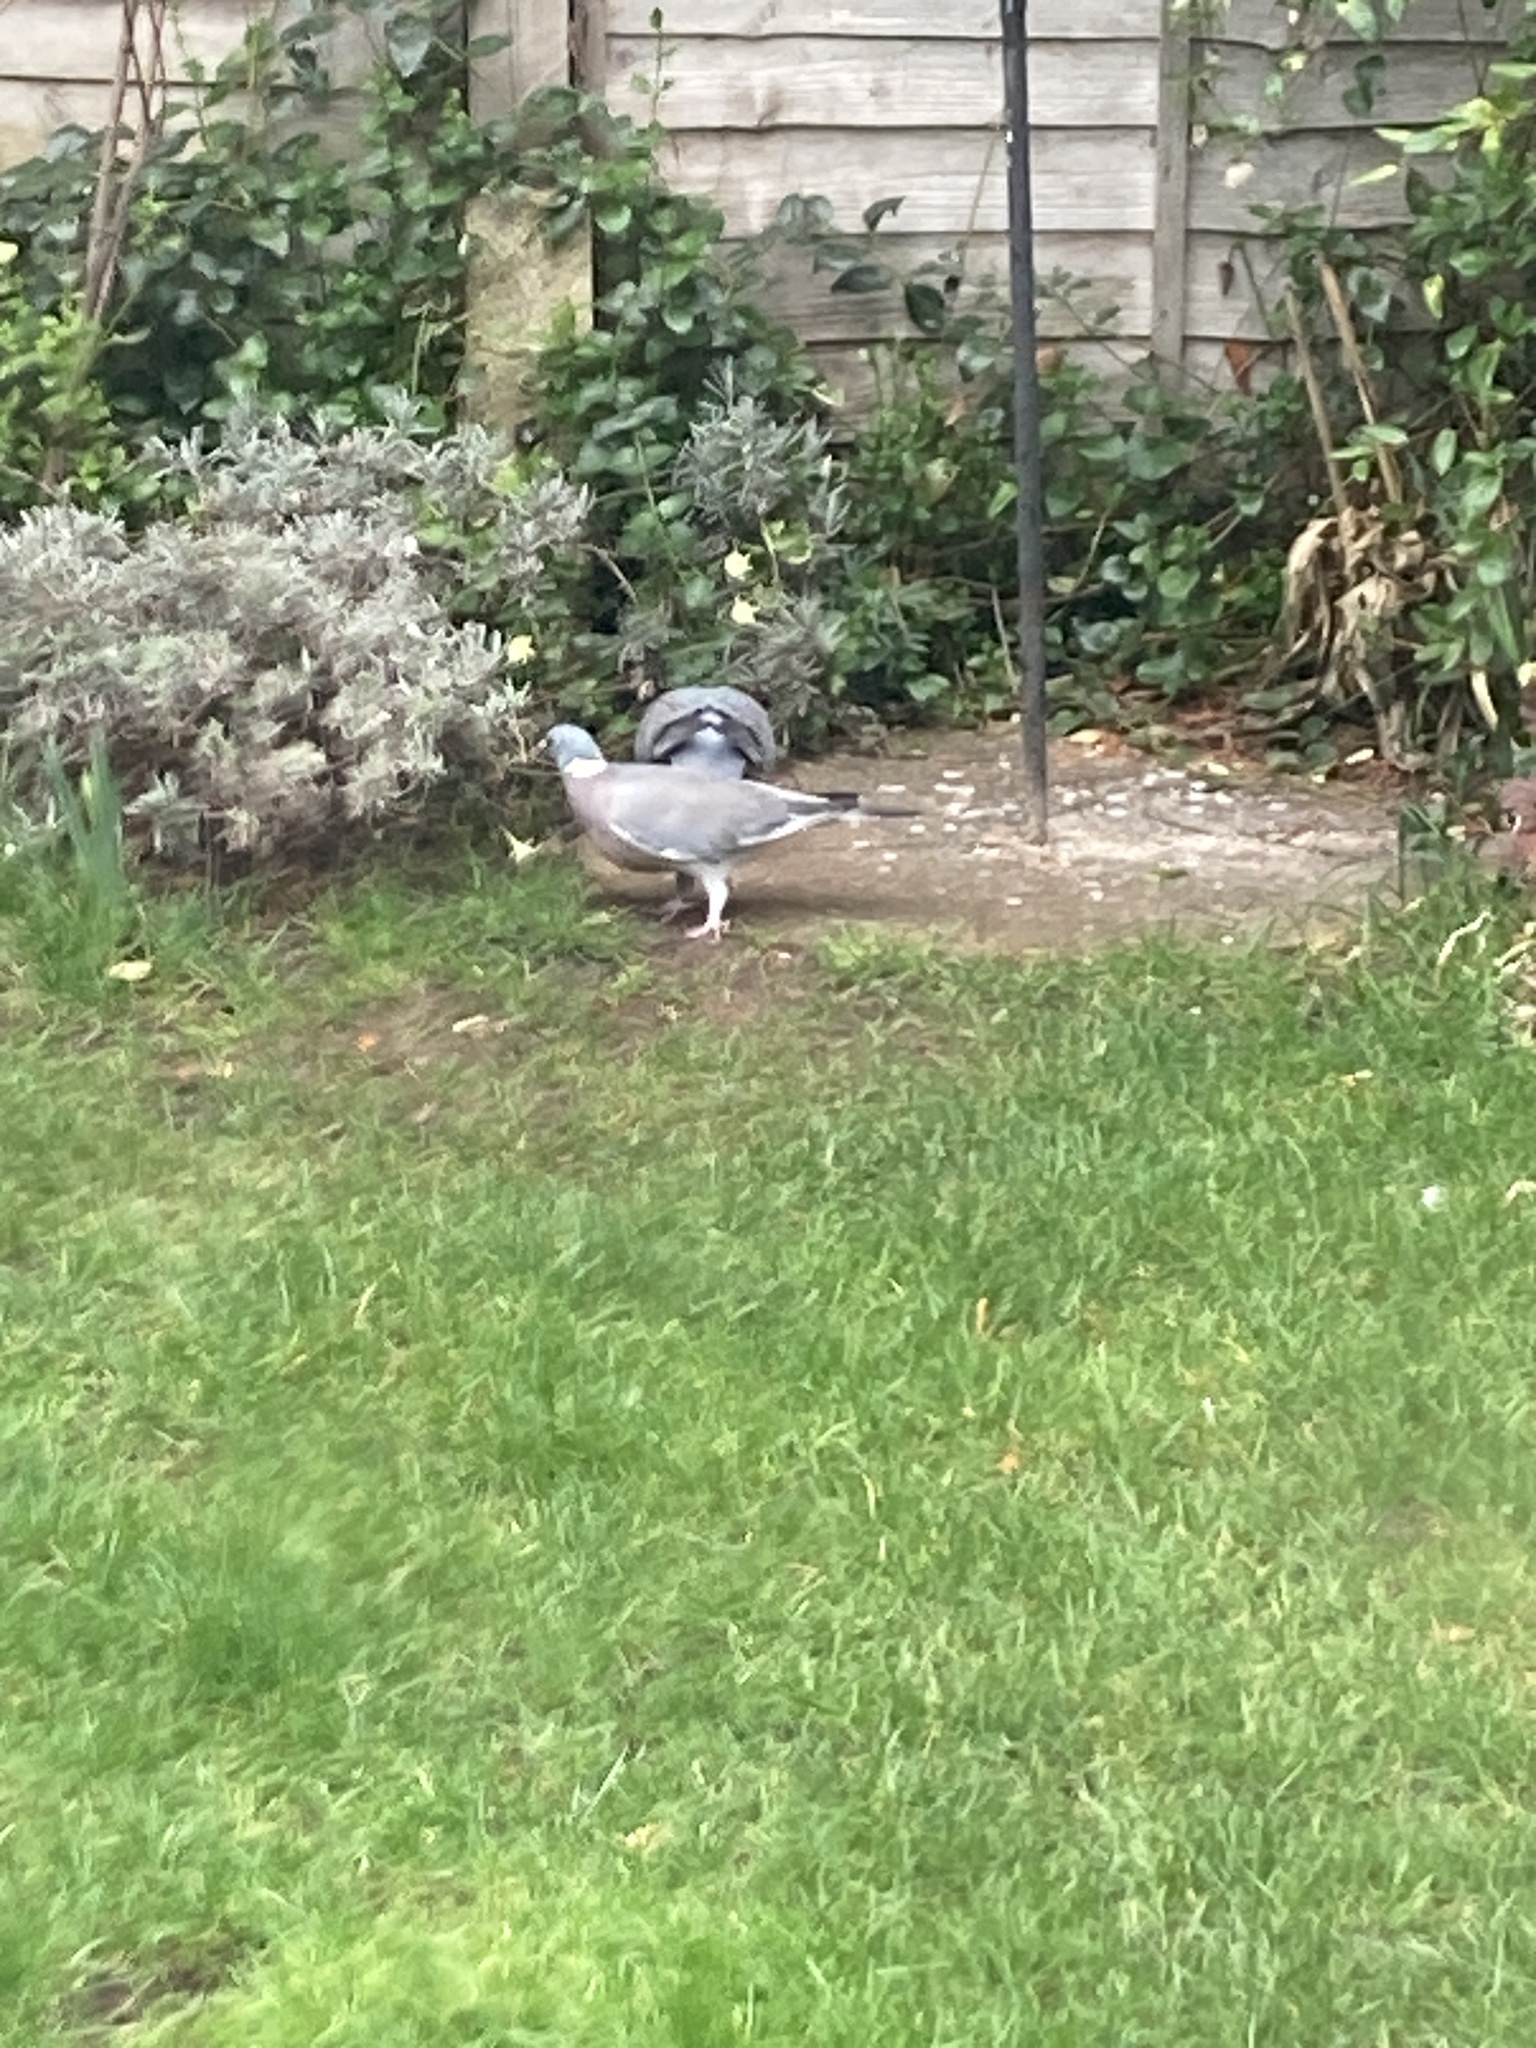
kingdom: Animalia
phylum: Chordata
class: Aves
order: Columbiformes
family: Columbidae
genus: Columba
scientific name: Columba palumbus
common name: Common wood pigeon
